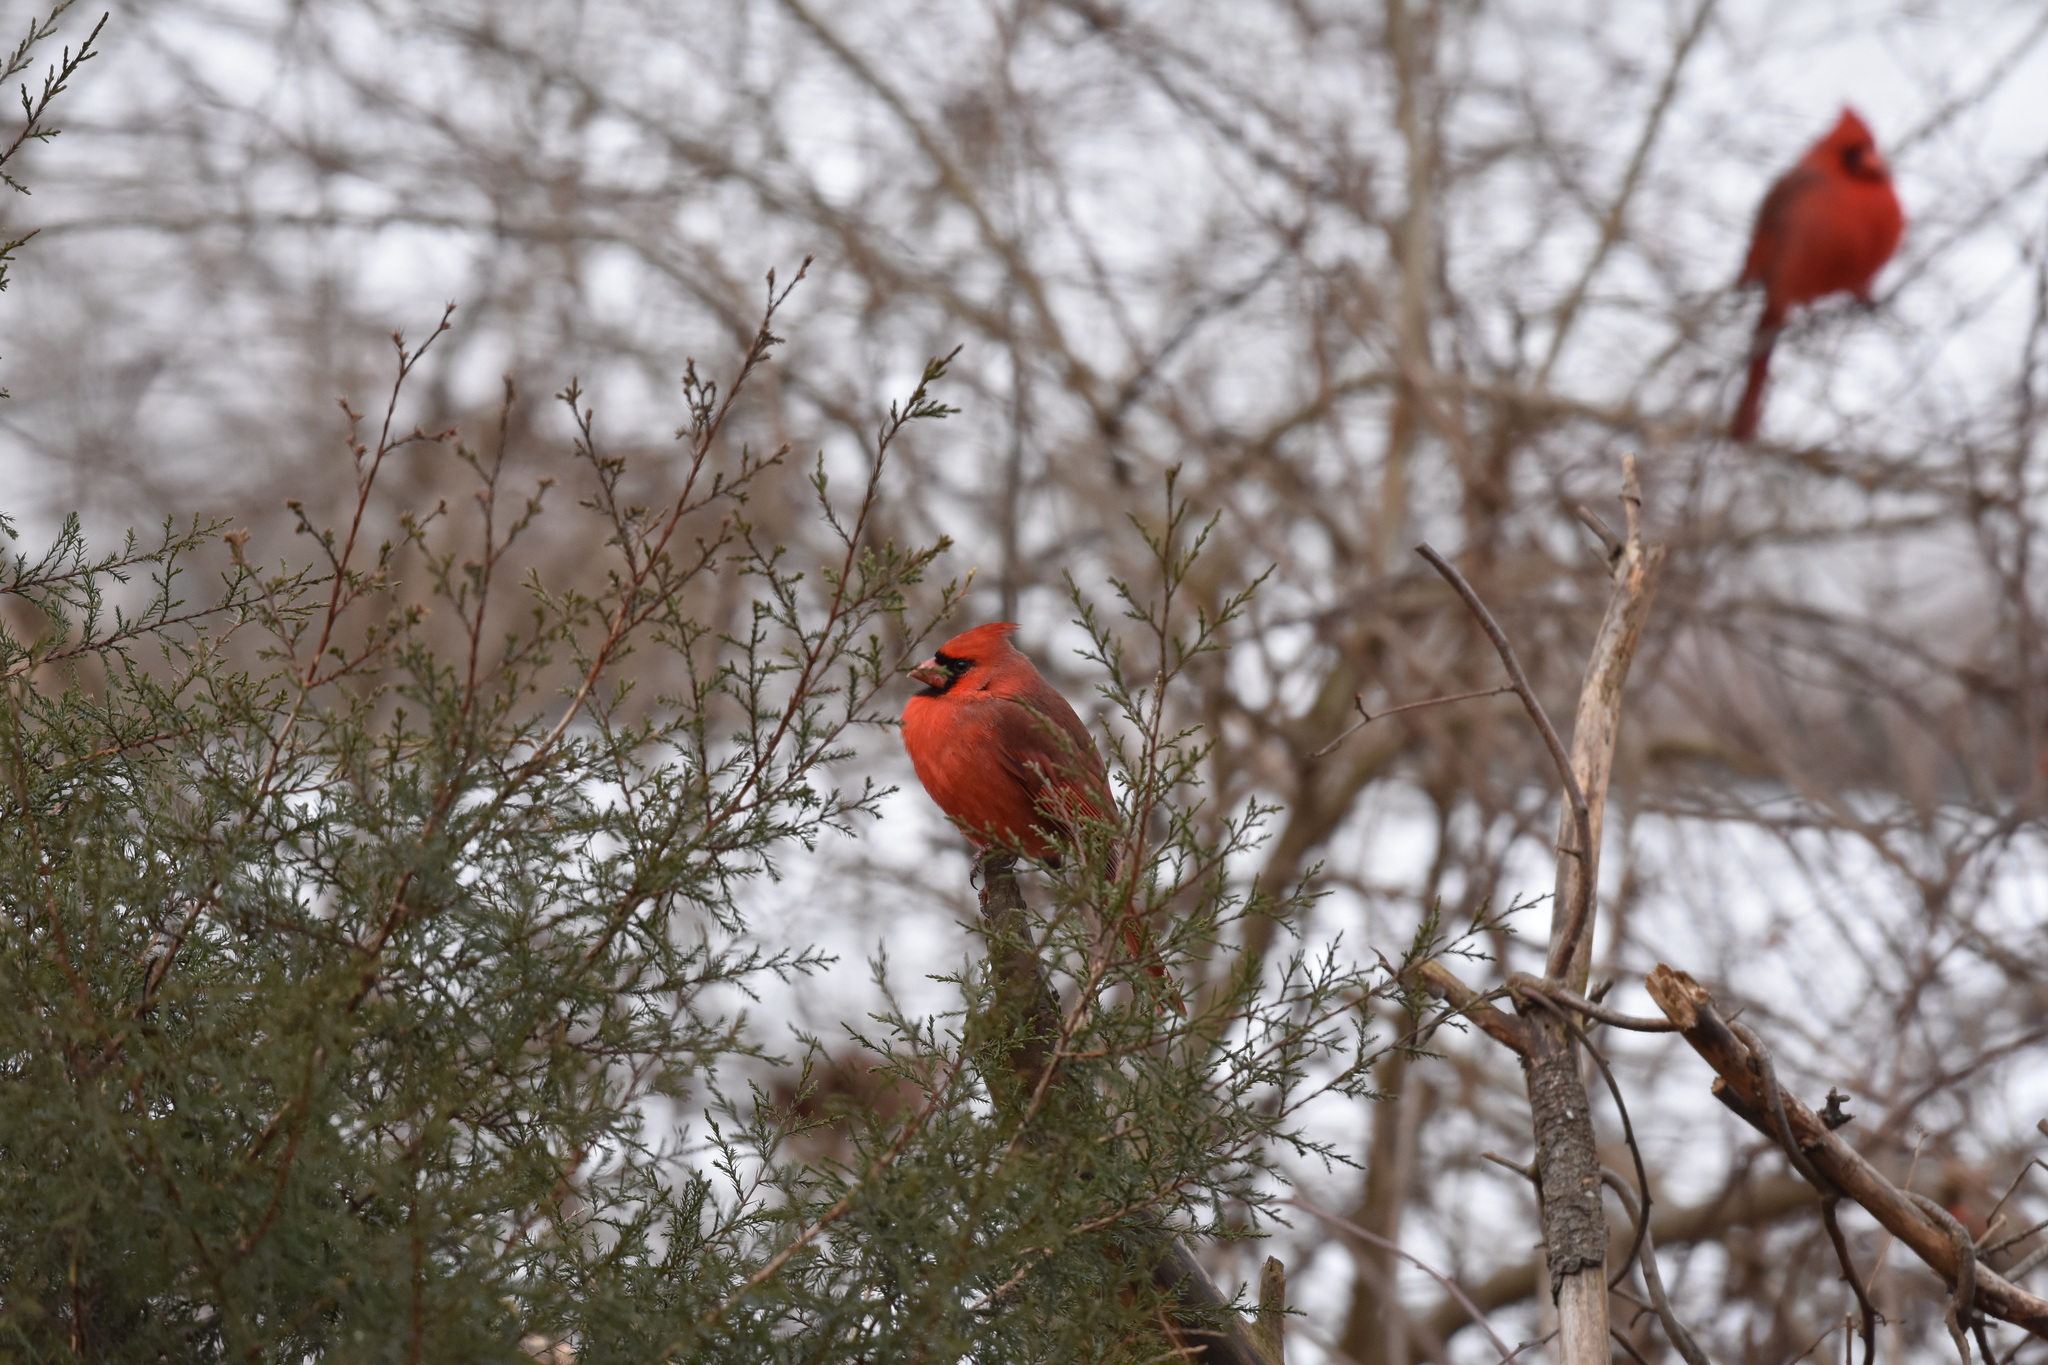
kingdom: Animalia
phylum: Chordata
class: Aves
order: Passeriformes
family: Cardinalidae
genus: Cardinalis
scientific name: Cardinalis cardinalis
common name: Northern cardinal
